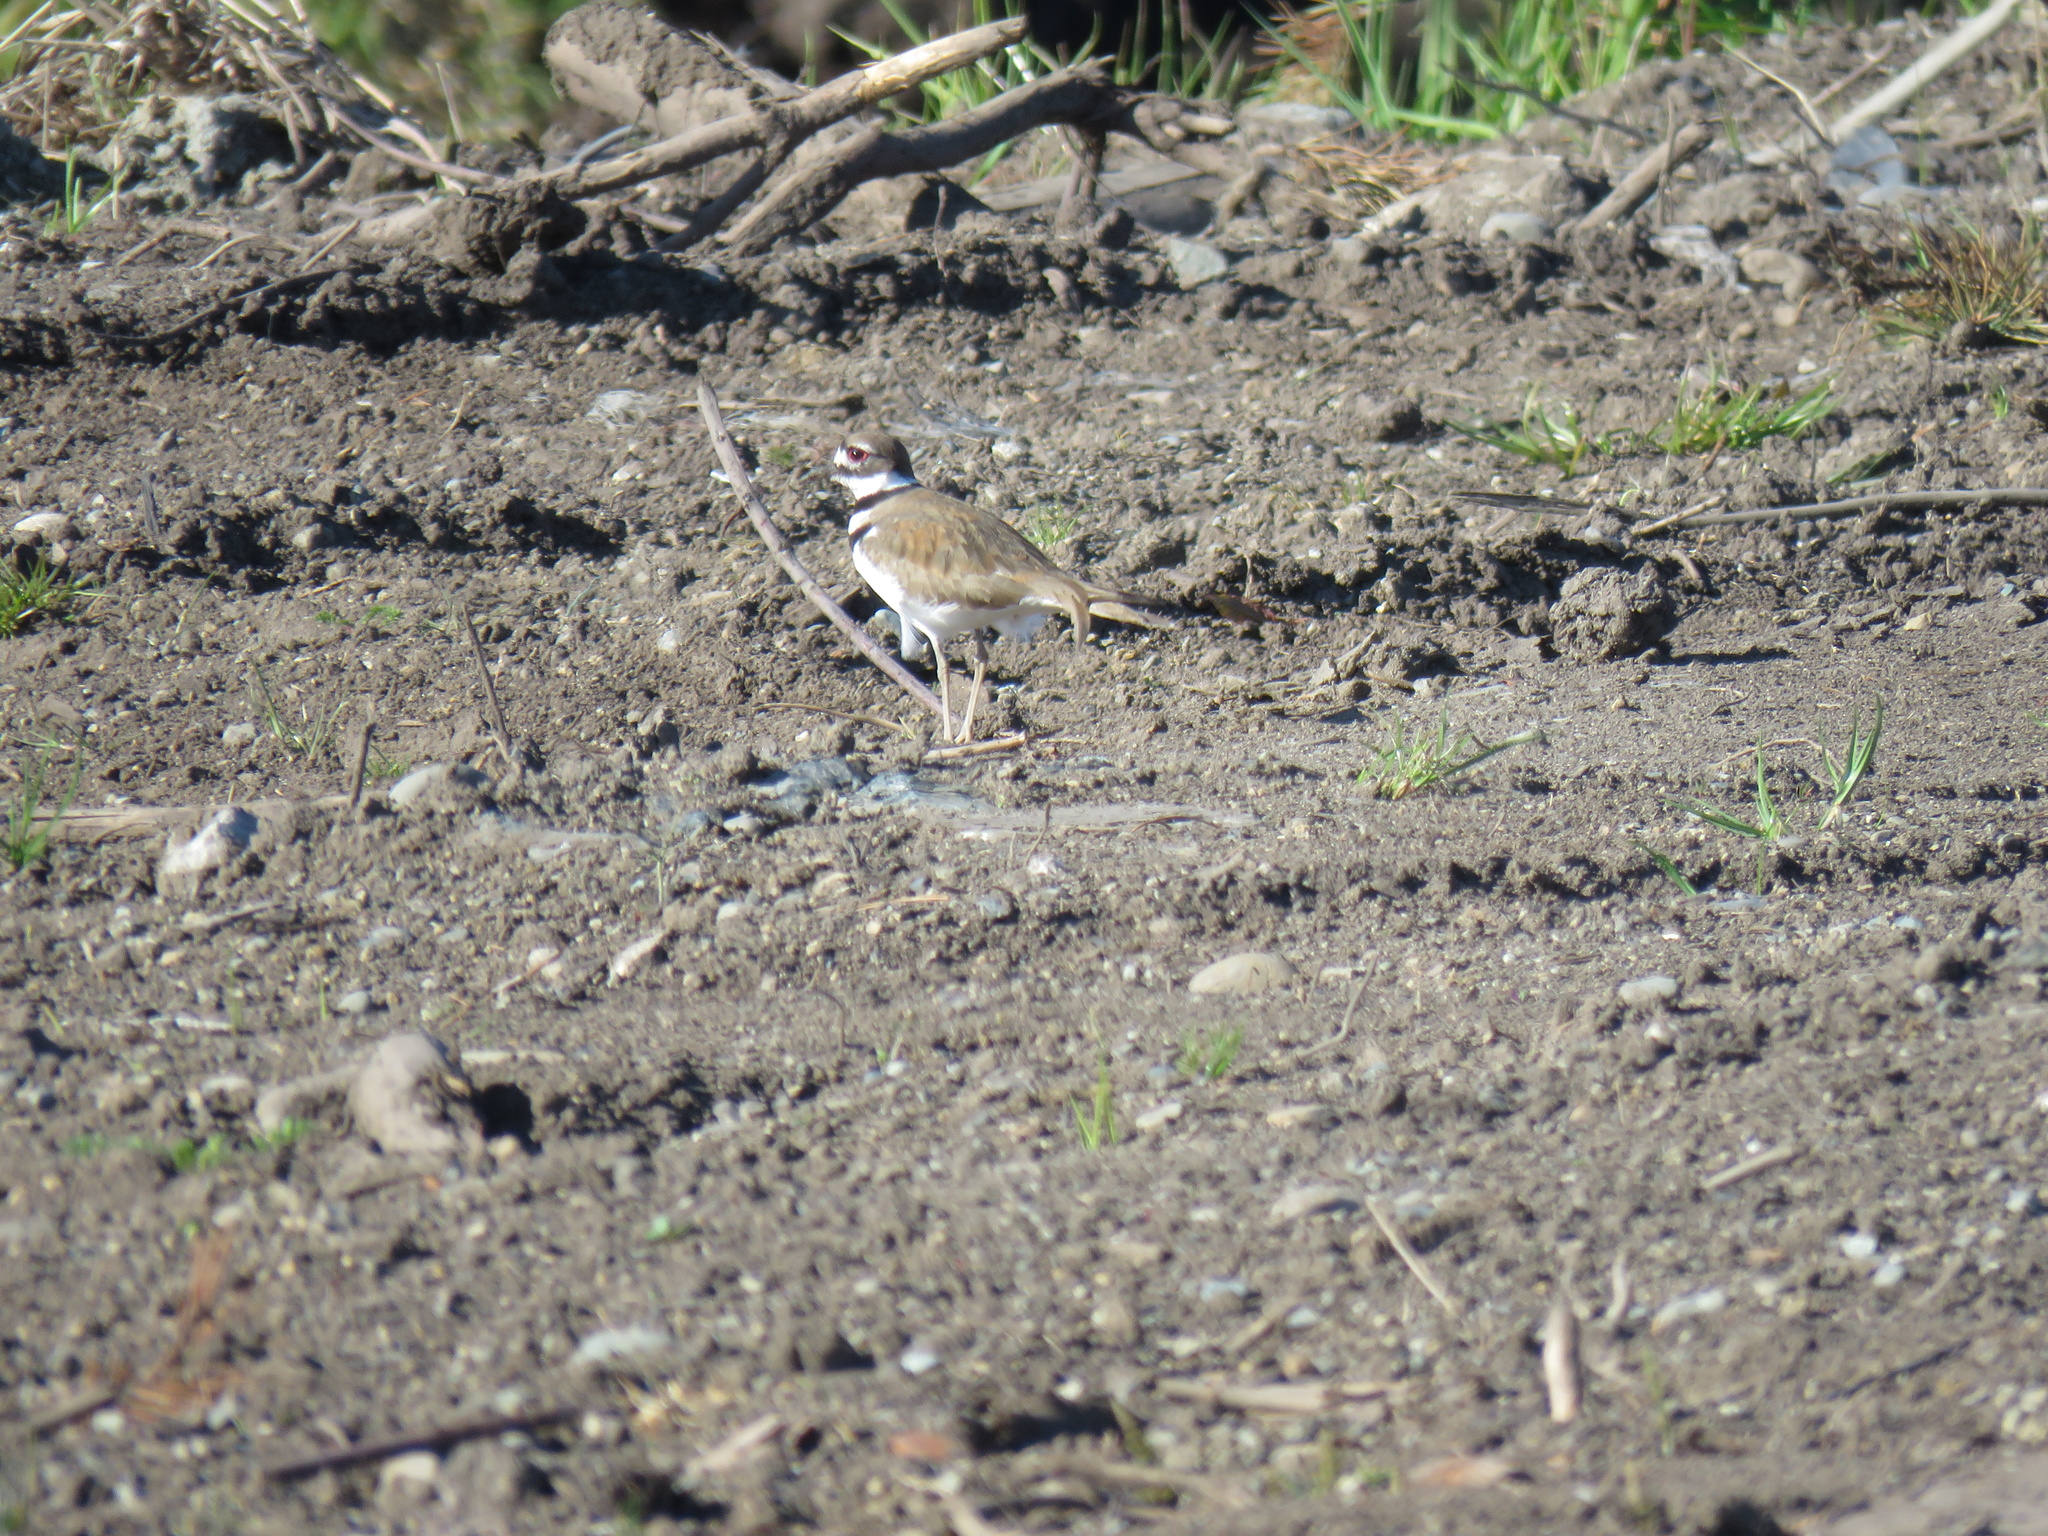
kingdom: Animalia
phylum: Chordata
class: Aves
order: Charadriiformes
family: Charadriidae
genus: Charadrius
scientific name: Charadrius vociferus
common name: Killdeer
